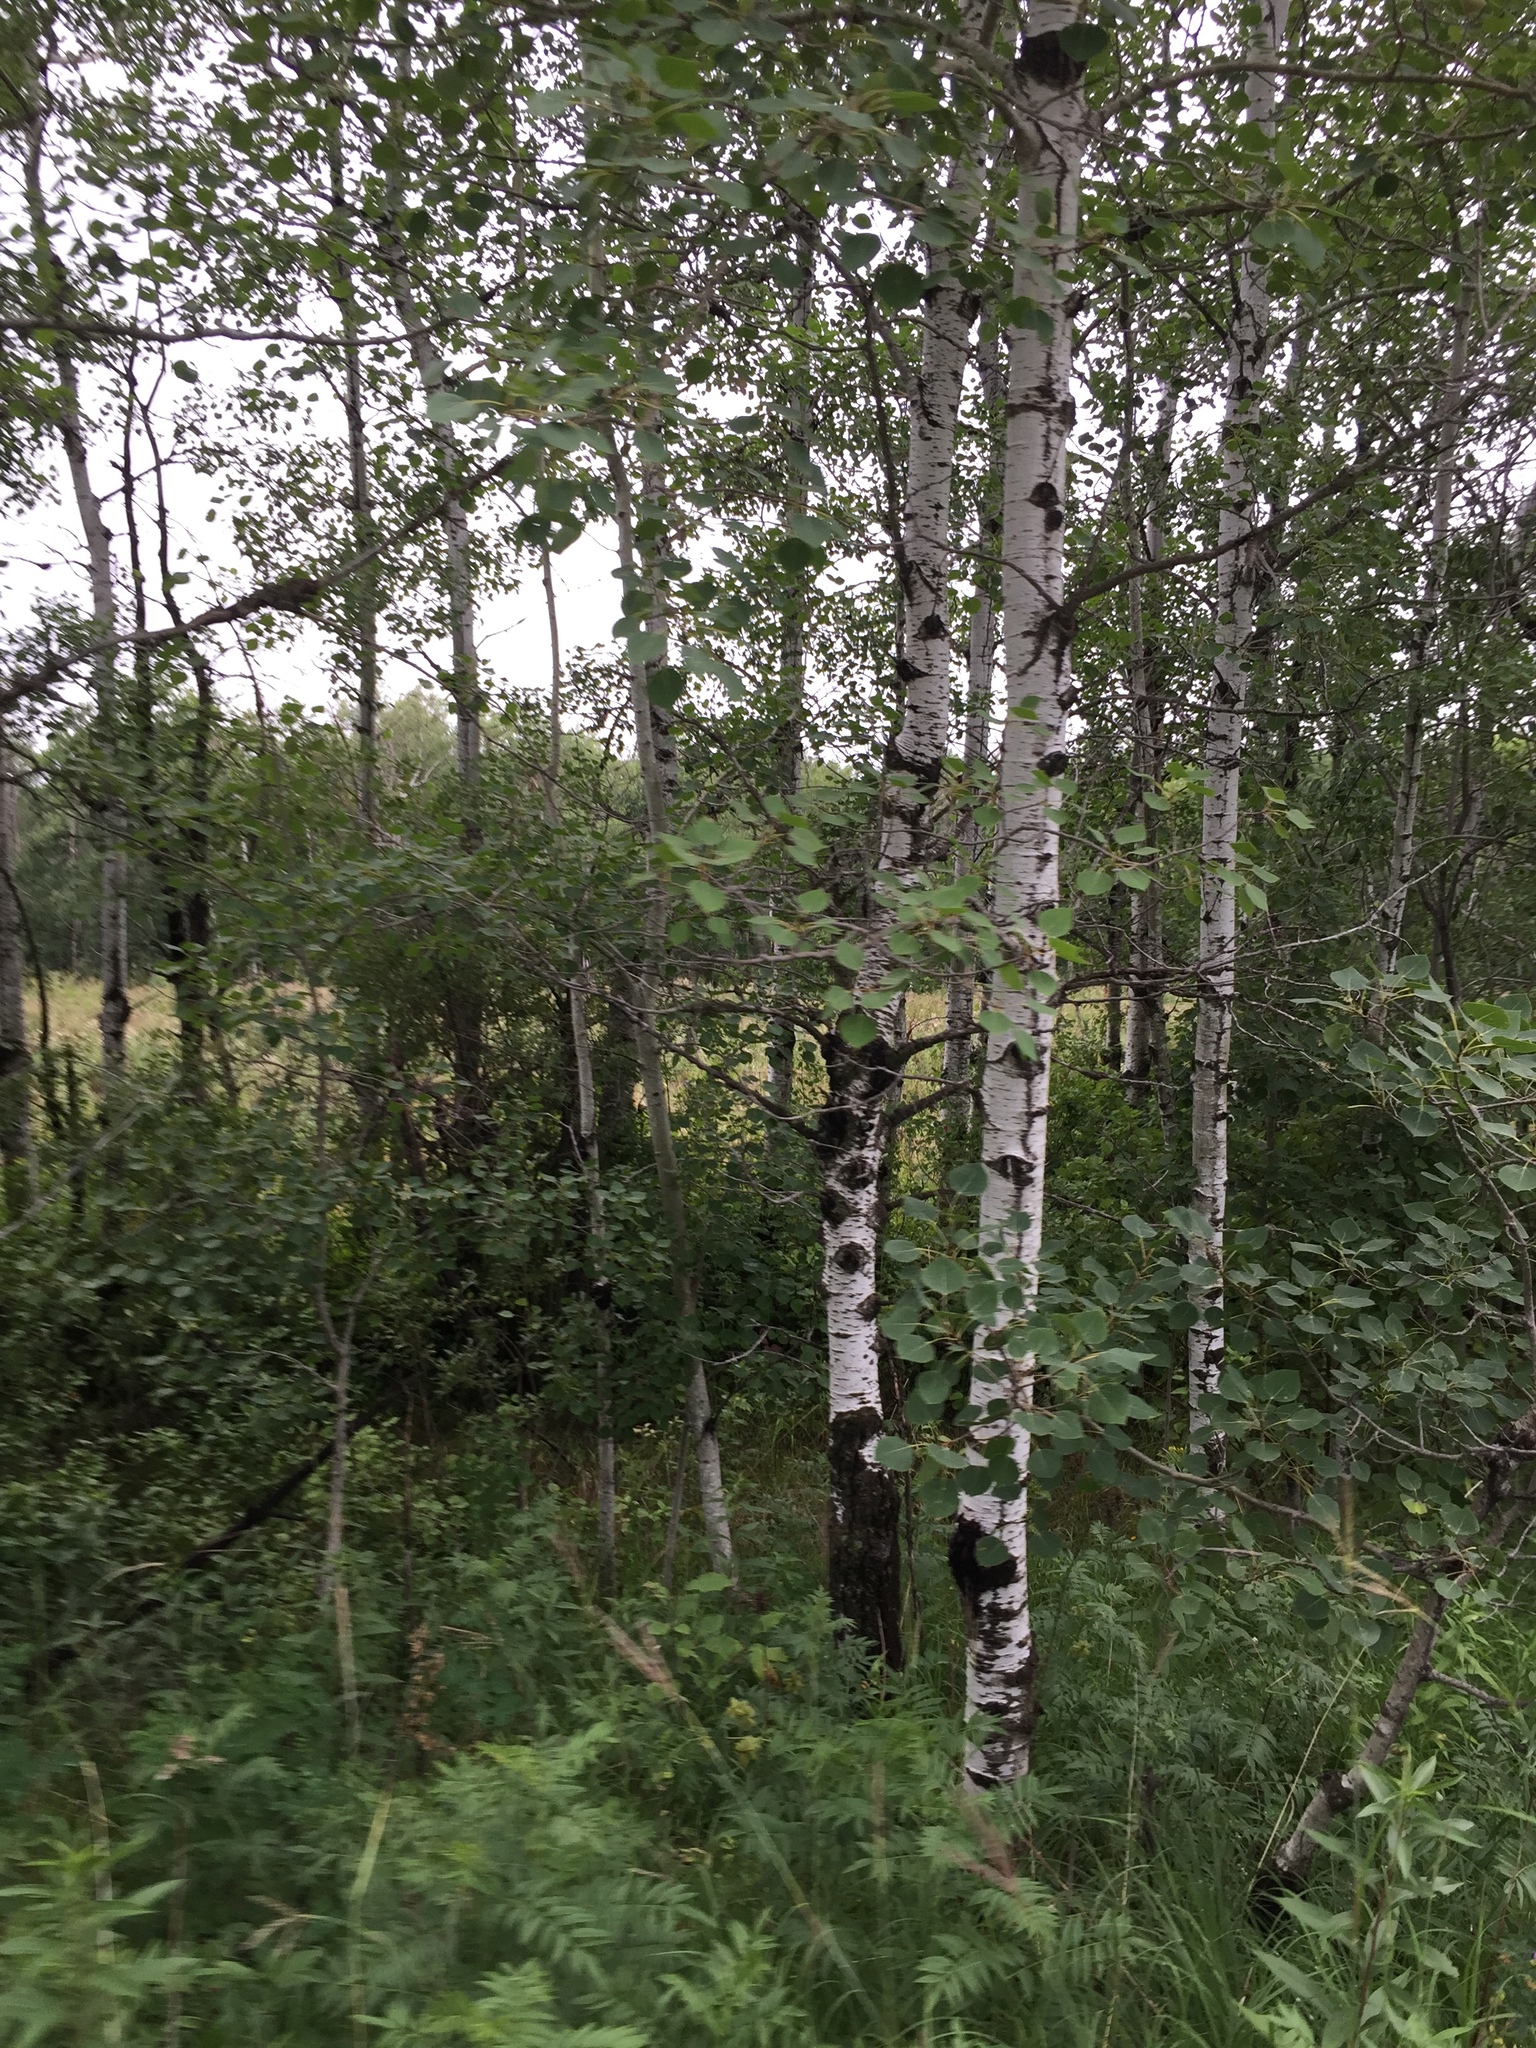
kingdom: Plantae
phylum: Tracheophyta
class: Magnoliopsida
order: Malpighiales
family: Salicaceae
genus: Populus
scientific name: Populus tremuloides
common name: Quaking aspen
